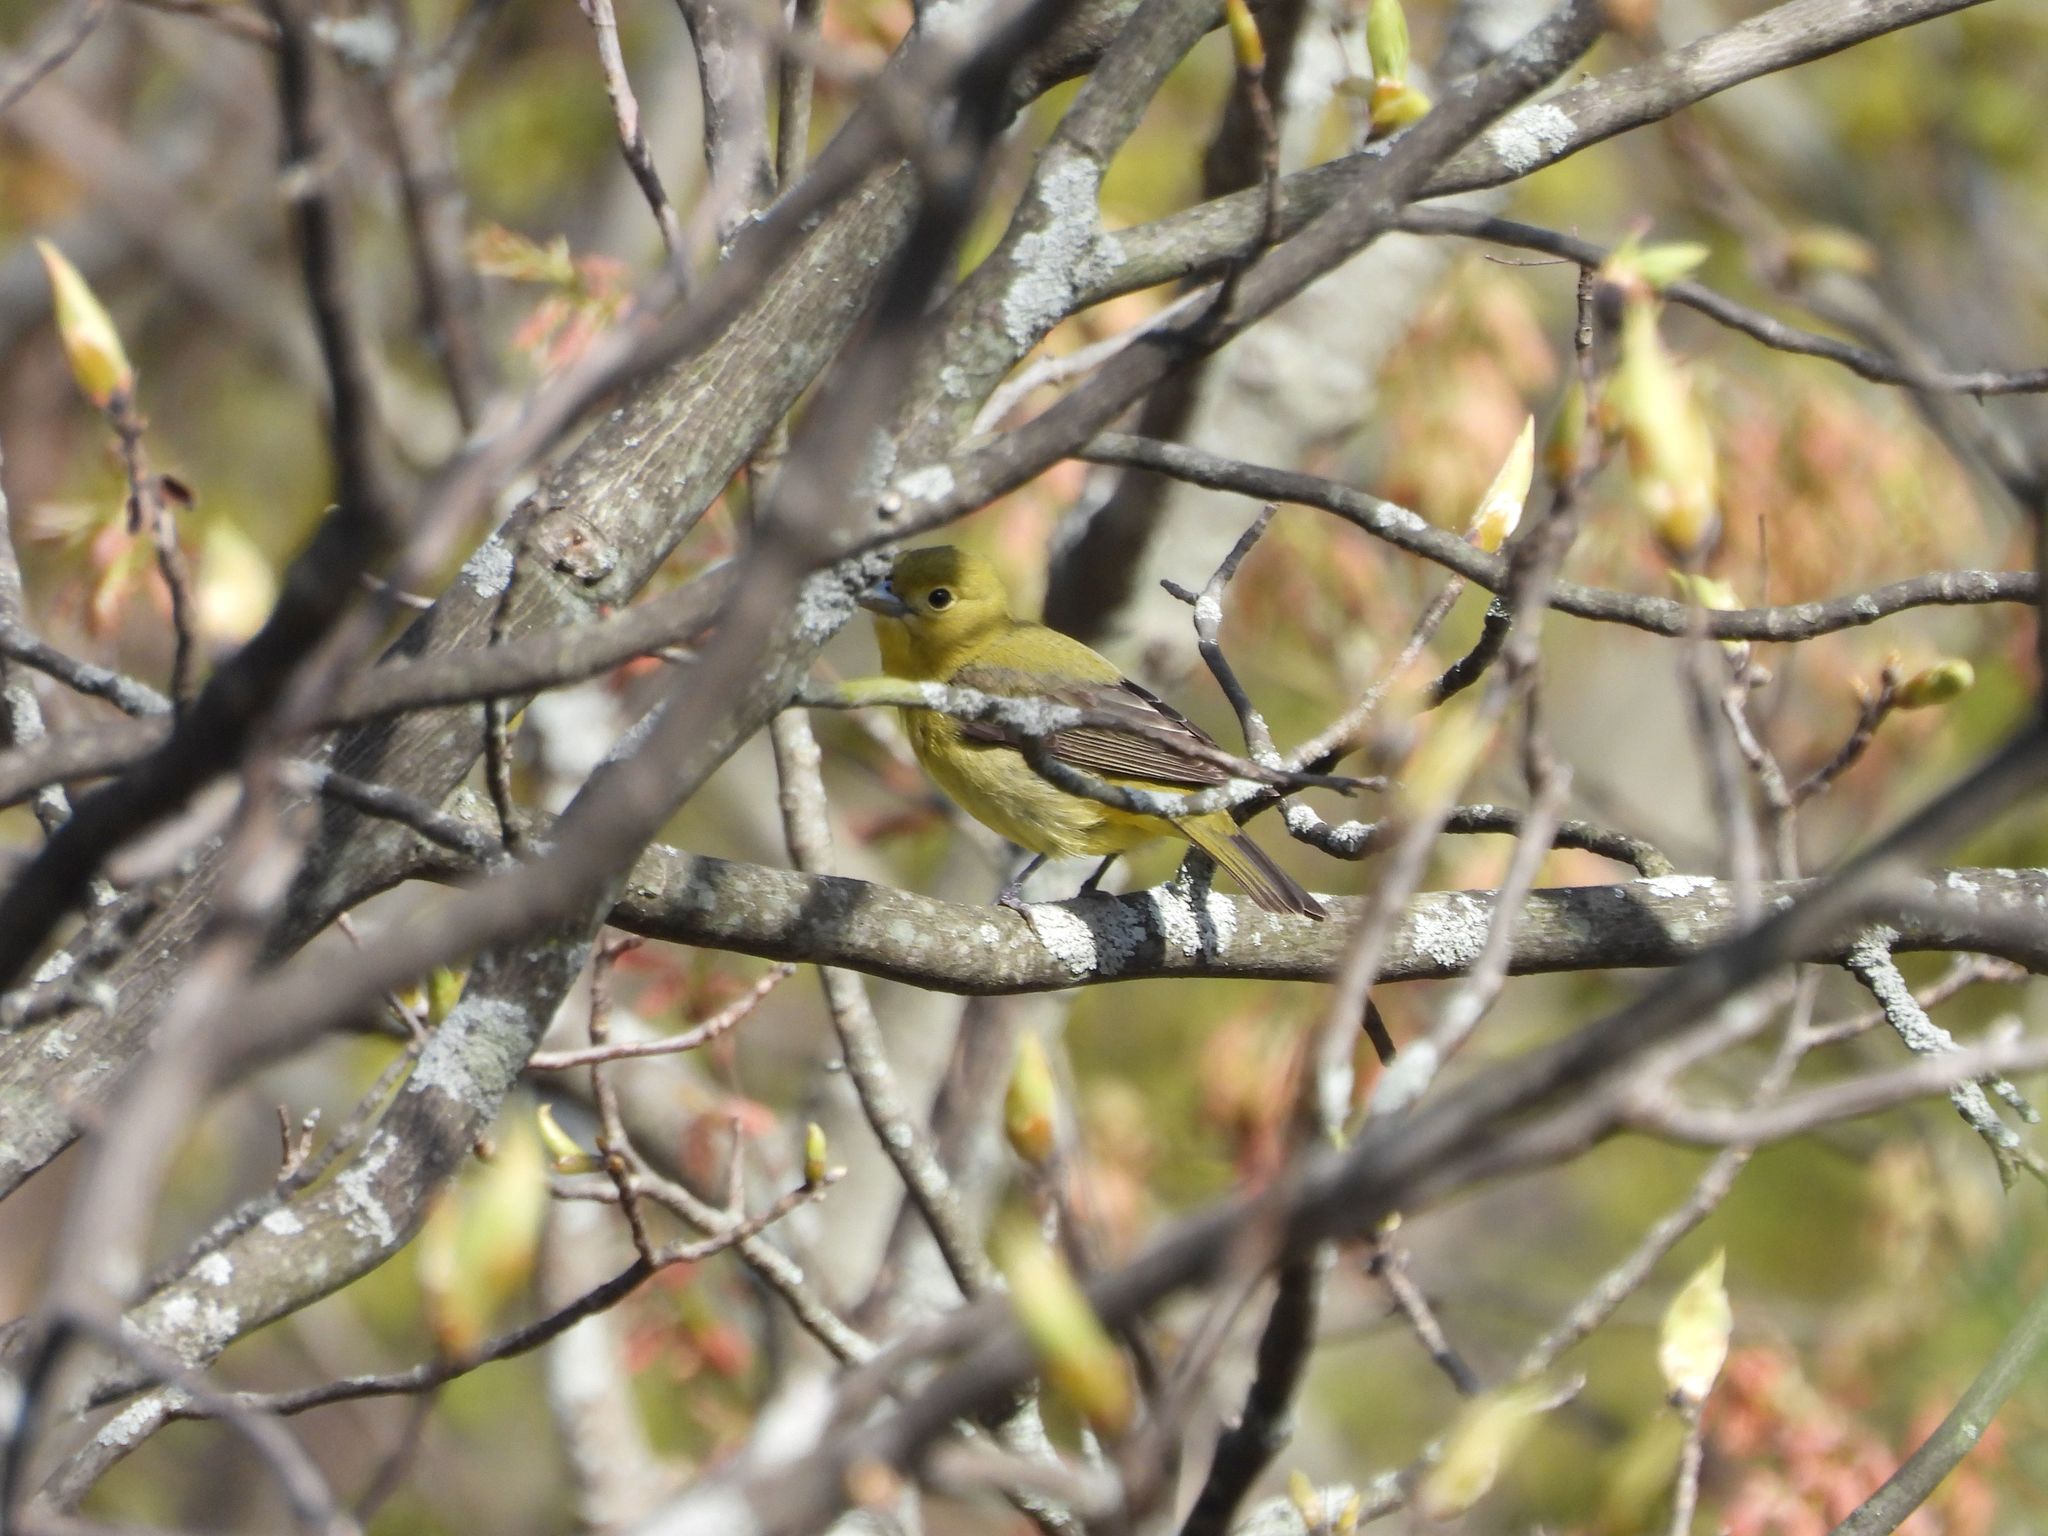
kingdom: Animalia
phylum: Chordata
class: Aves
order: Passeriformes
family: Cardinalidae
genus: Piranga
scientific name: Piranga olivacea
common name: Scarlet tanager
